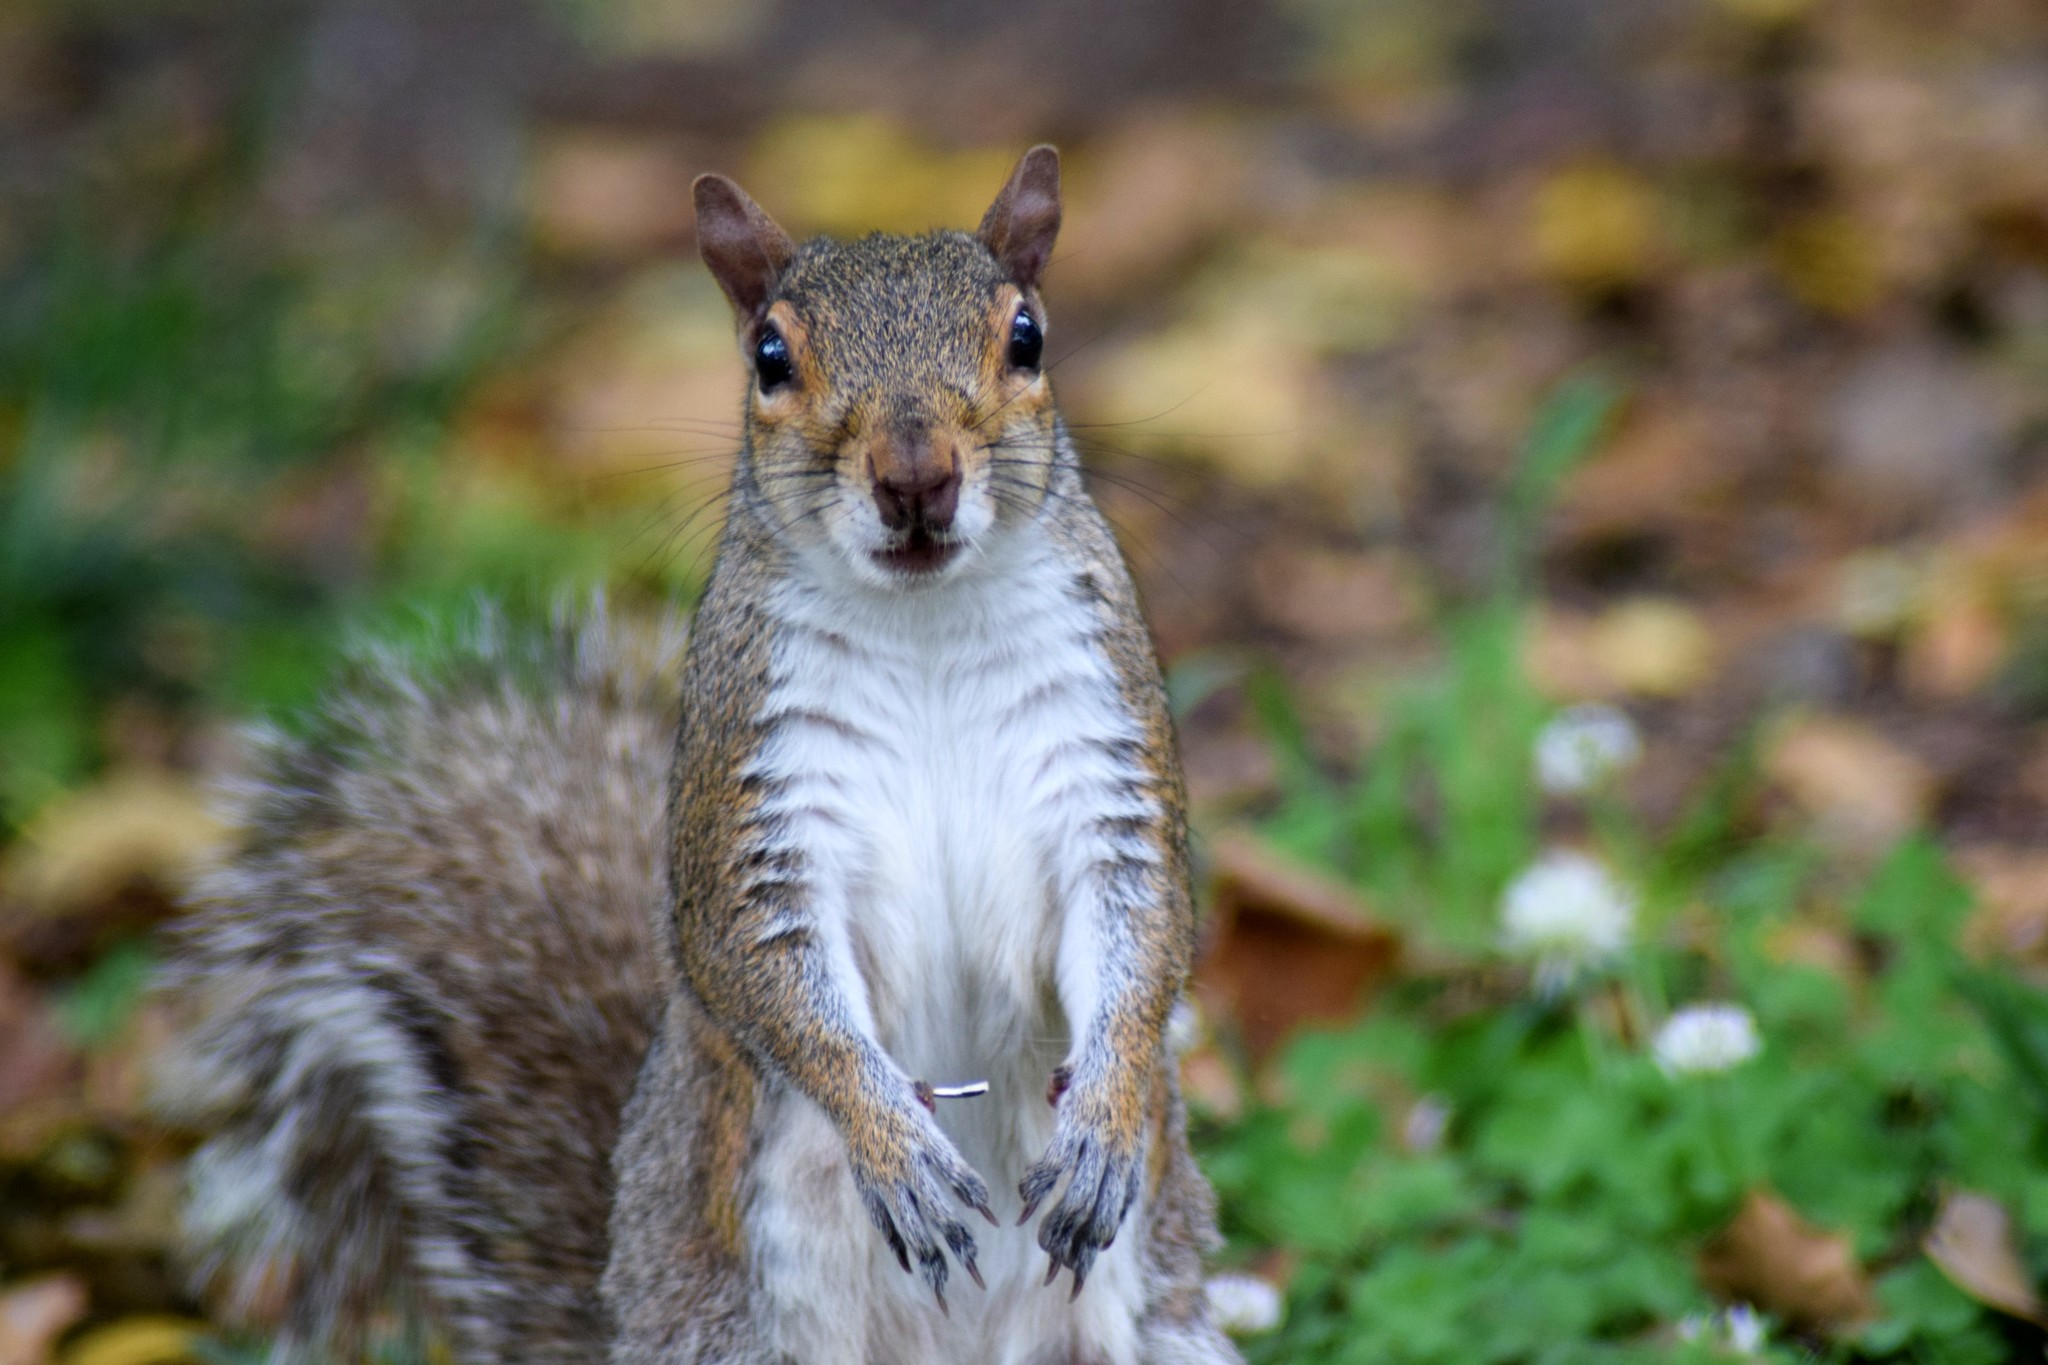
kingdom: Animalia
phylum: Chordata
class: Mammalia
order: Rodentia
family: Sciuridae
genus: Sciurus
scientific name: Sciurus carolinensis
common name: Eastern gray squirrel
